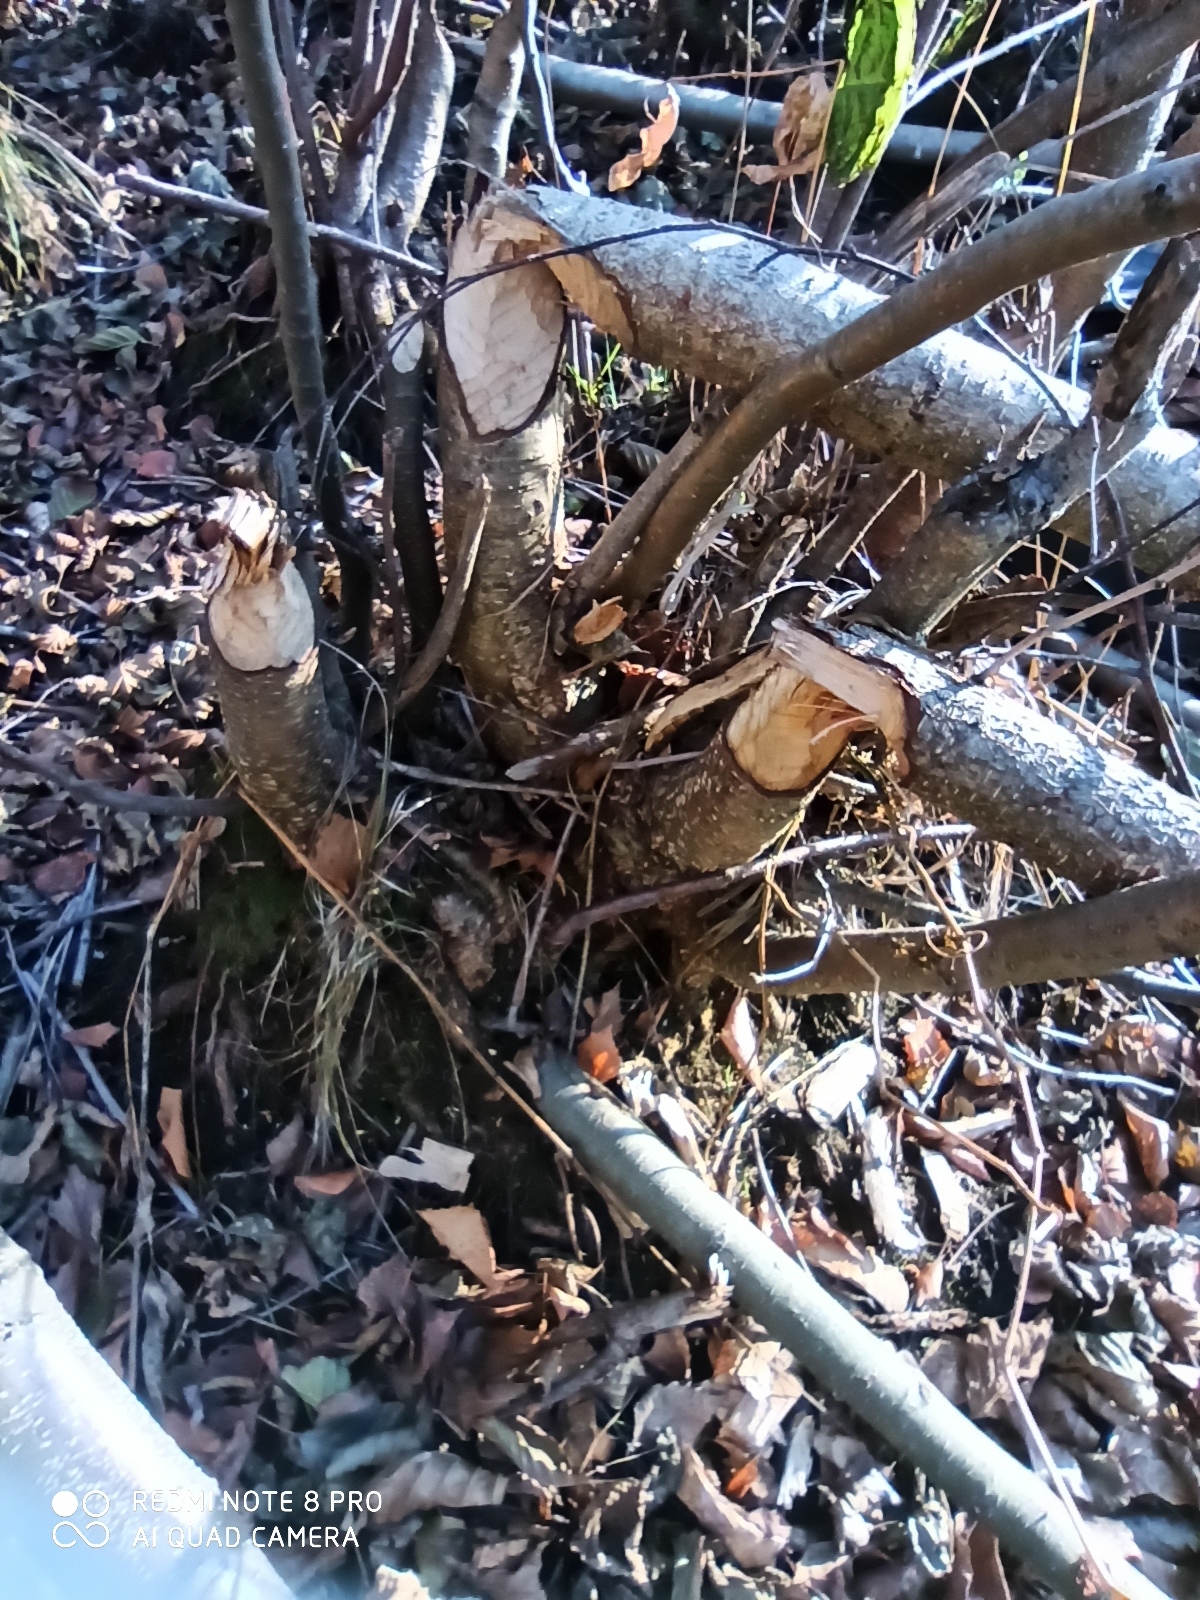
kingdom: Animalia
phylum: Chordata
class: Mammalia
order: Rodentia
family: Castoridae
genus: Castor
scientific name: Castor fiber
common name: Eurasian beaver
